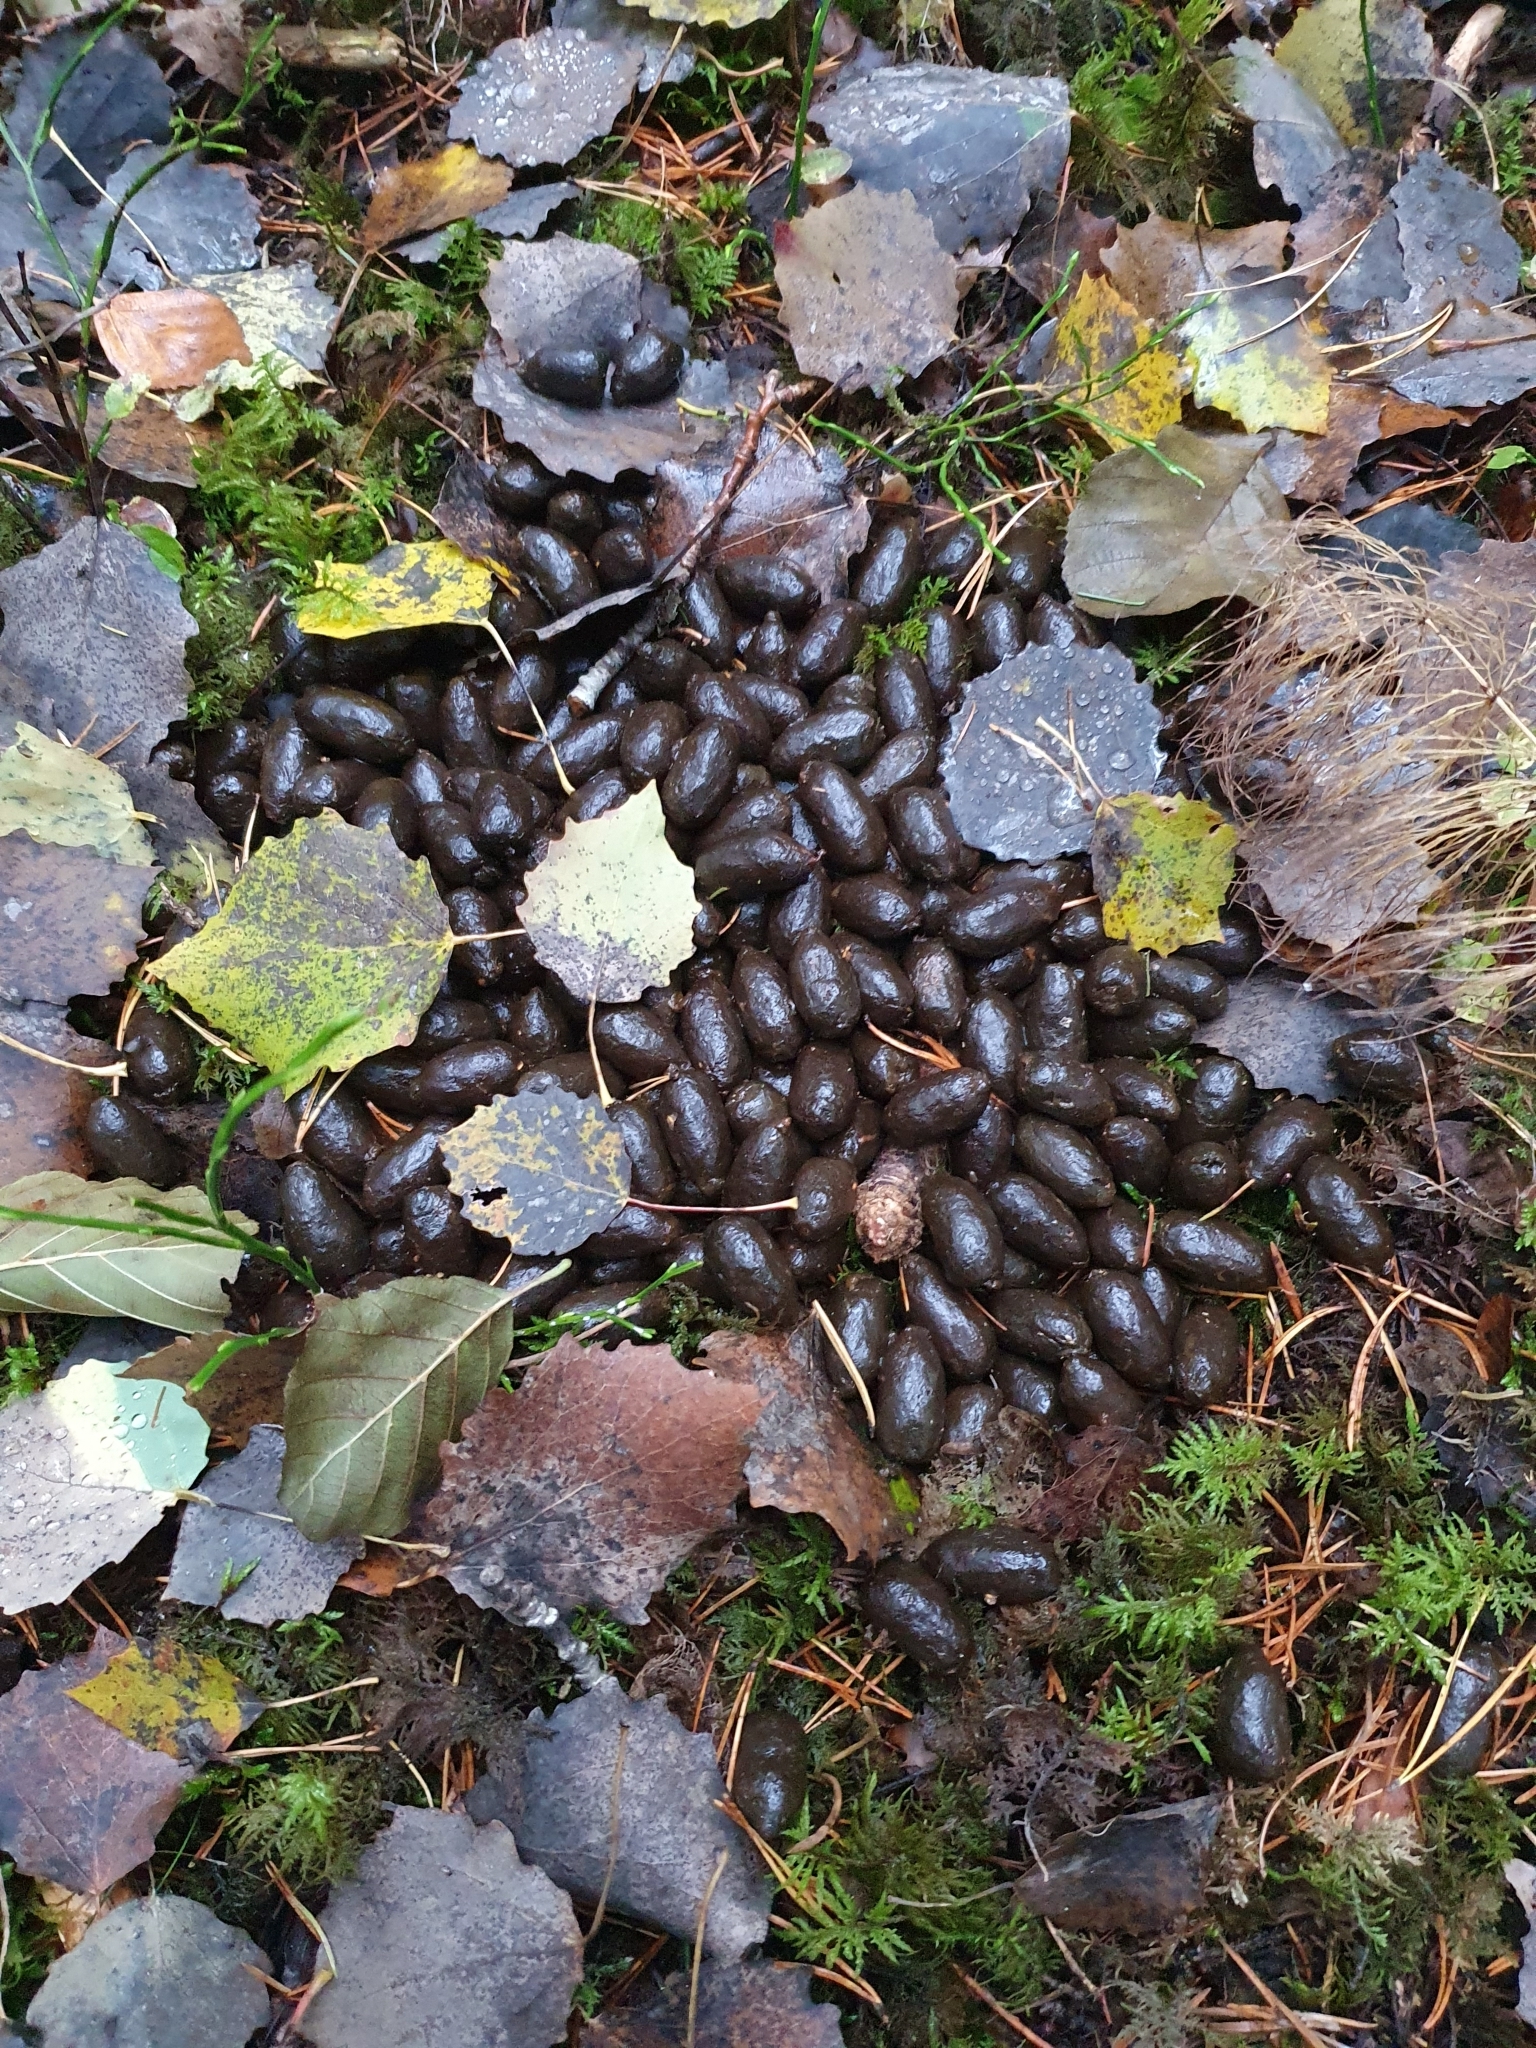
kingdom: Animalia
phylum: Chordata
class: Mammalia
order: Artiodactyla
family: Cervidae
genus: Alces
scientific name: Alces alces
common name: Moose
